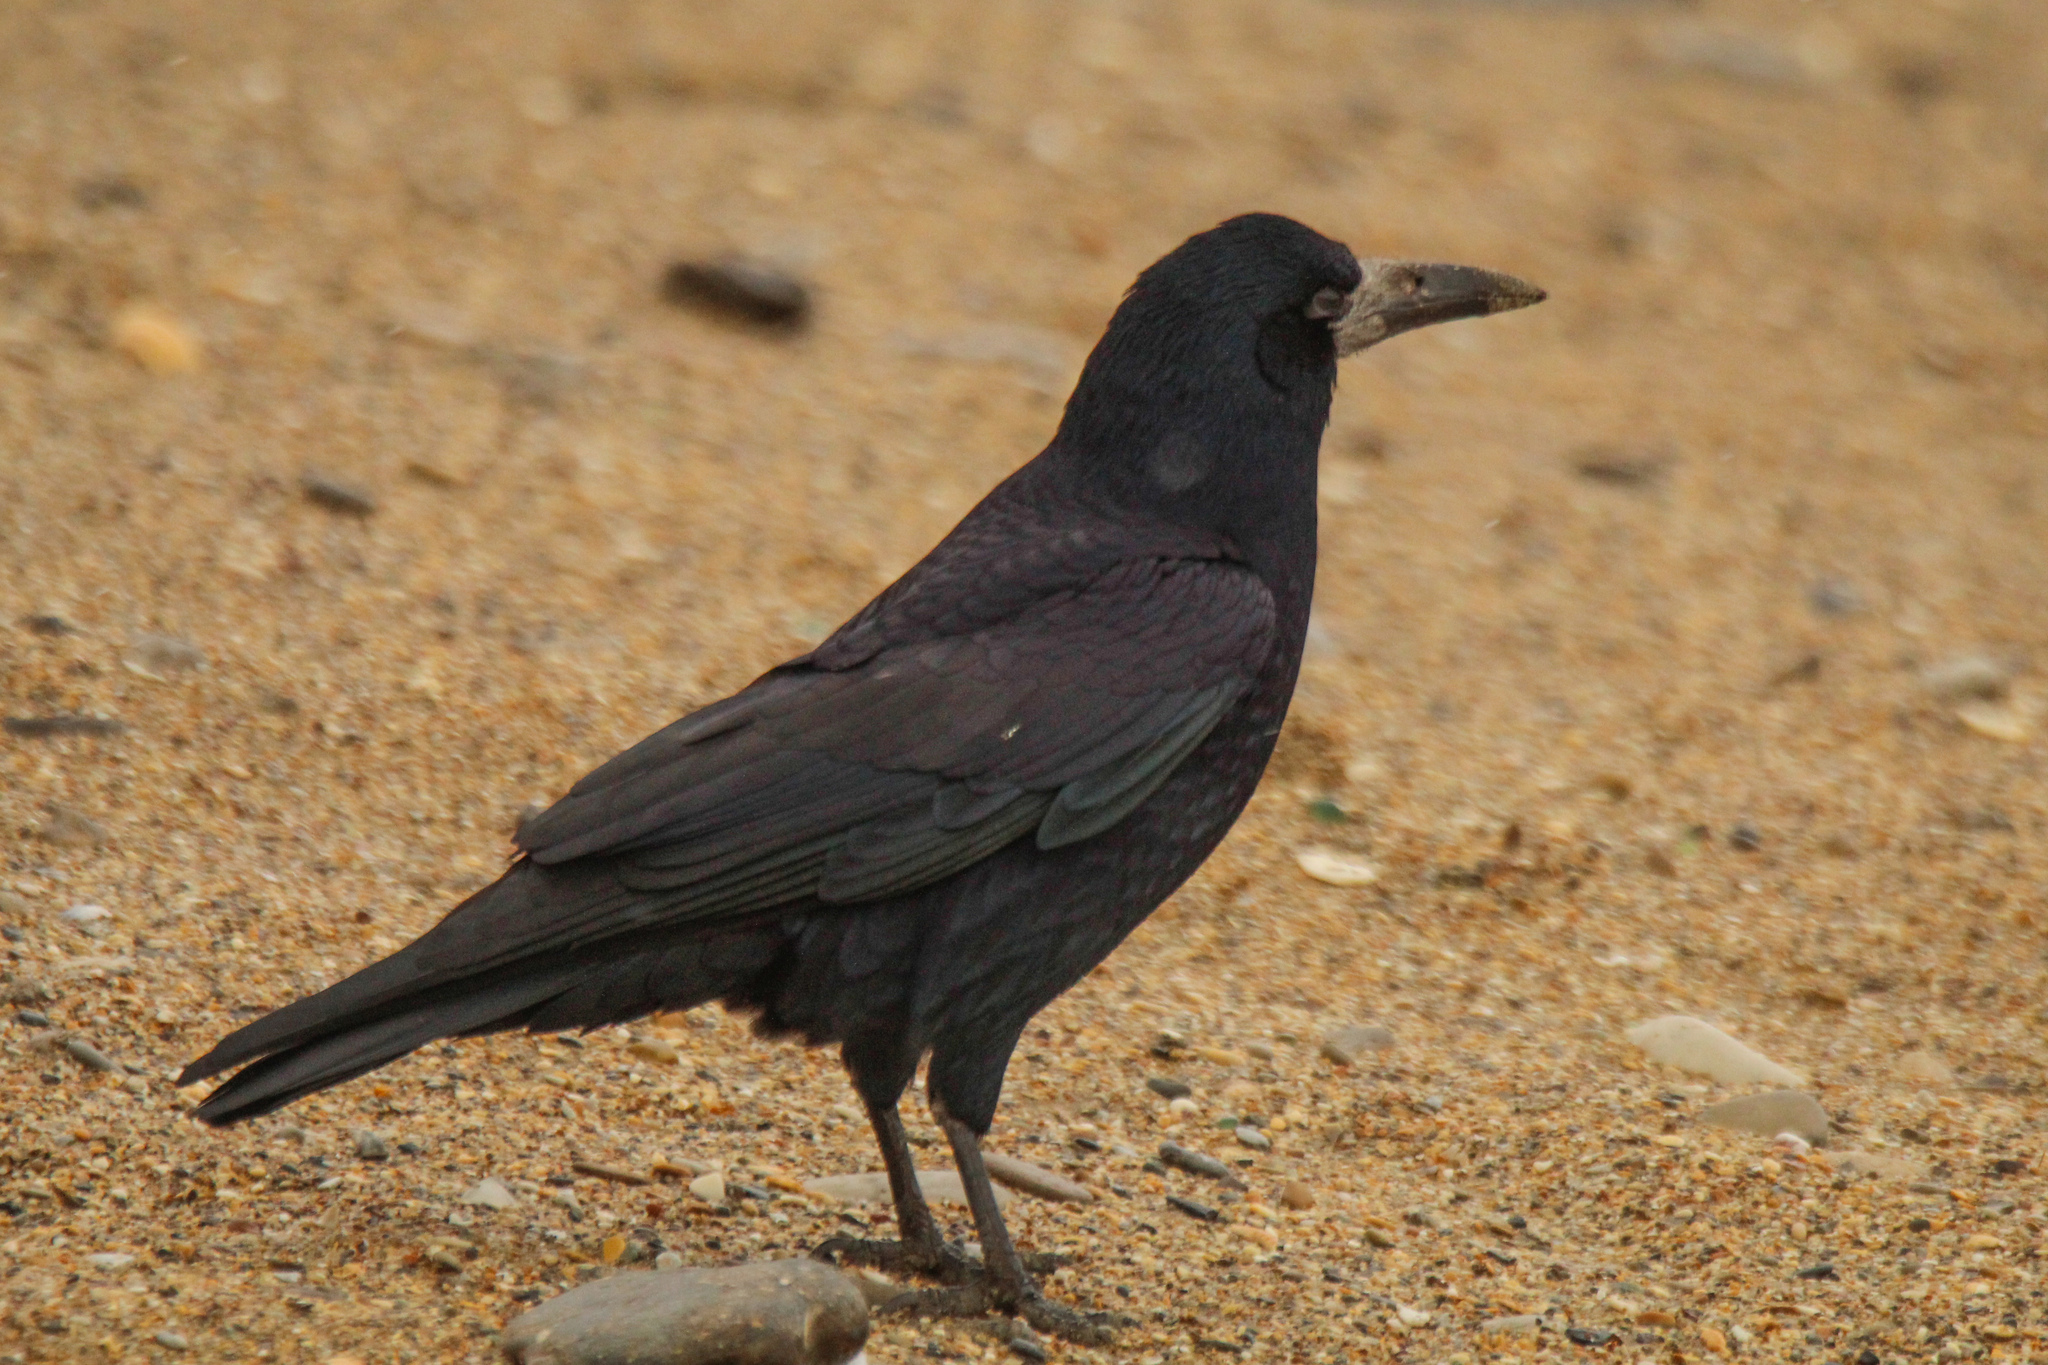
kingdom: Animalia
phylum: Chordata
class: Aves
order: Passeriformes
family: Corvidae
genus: Corvus
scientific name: Corvus frugilegus
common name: Rook
